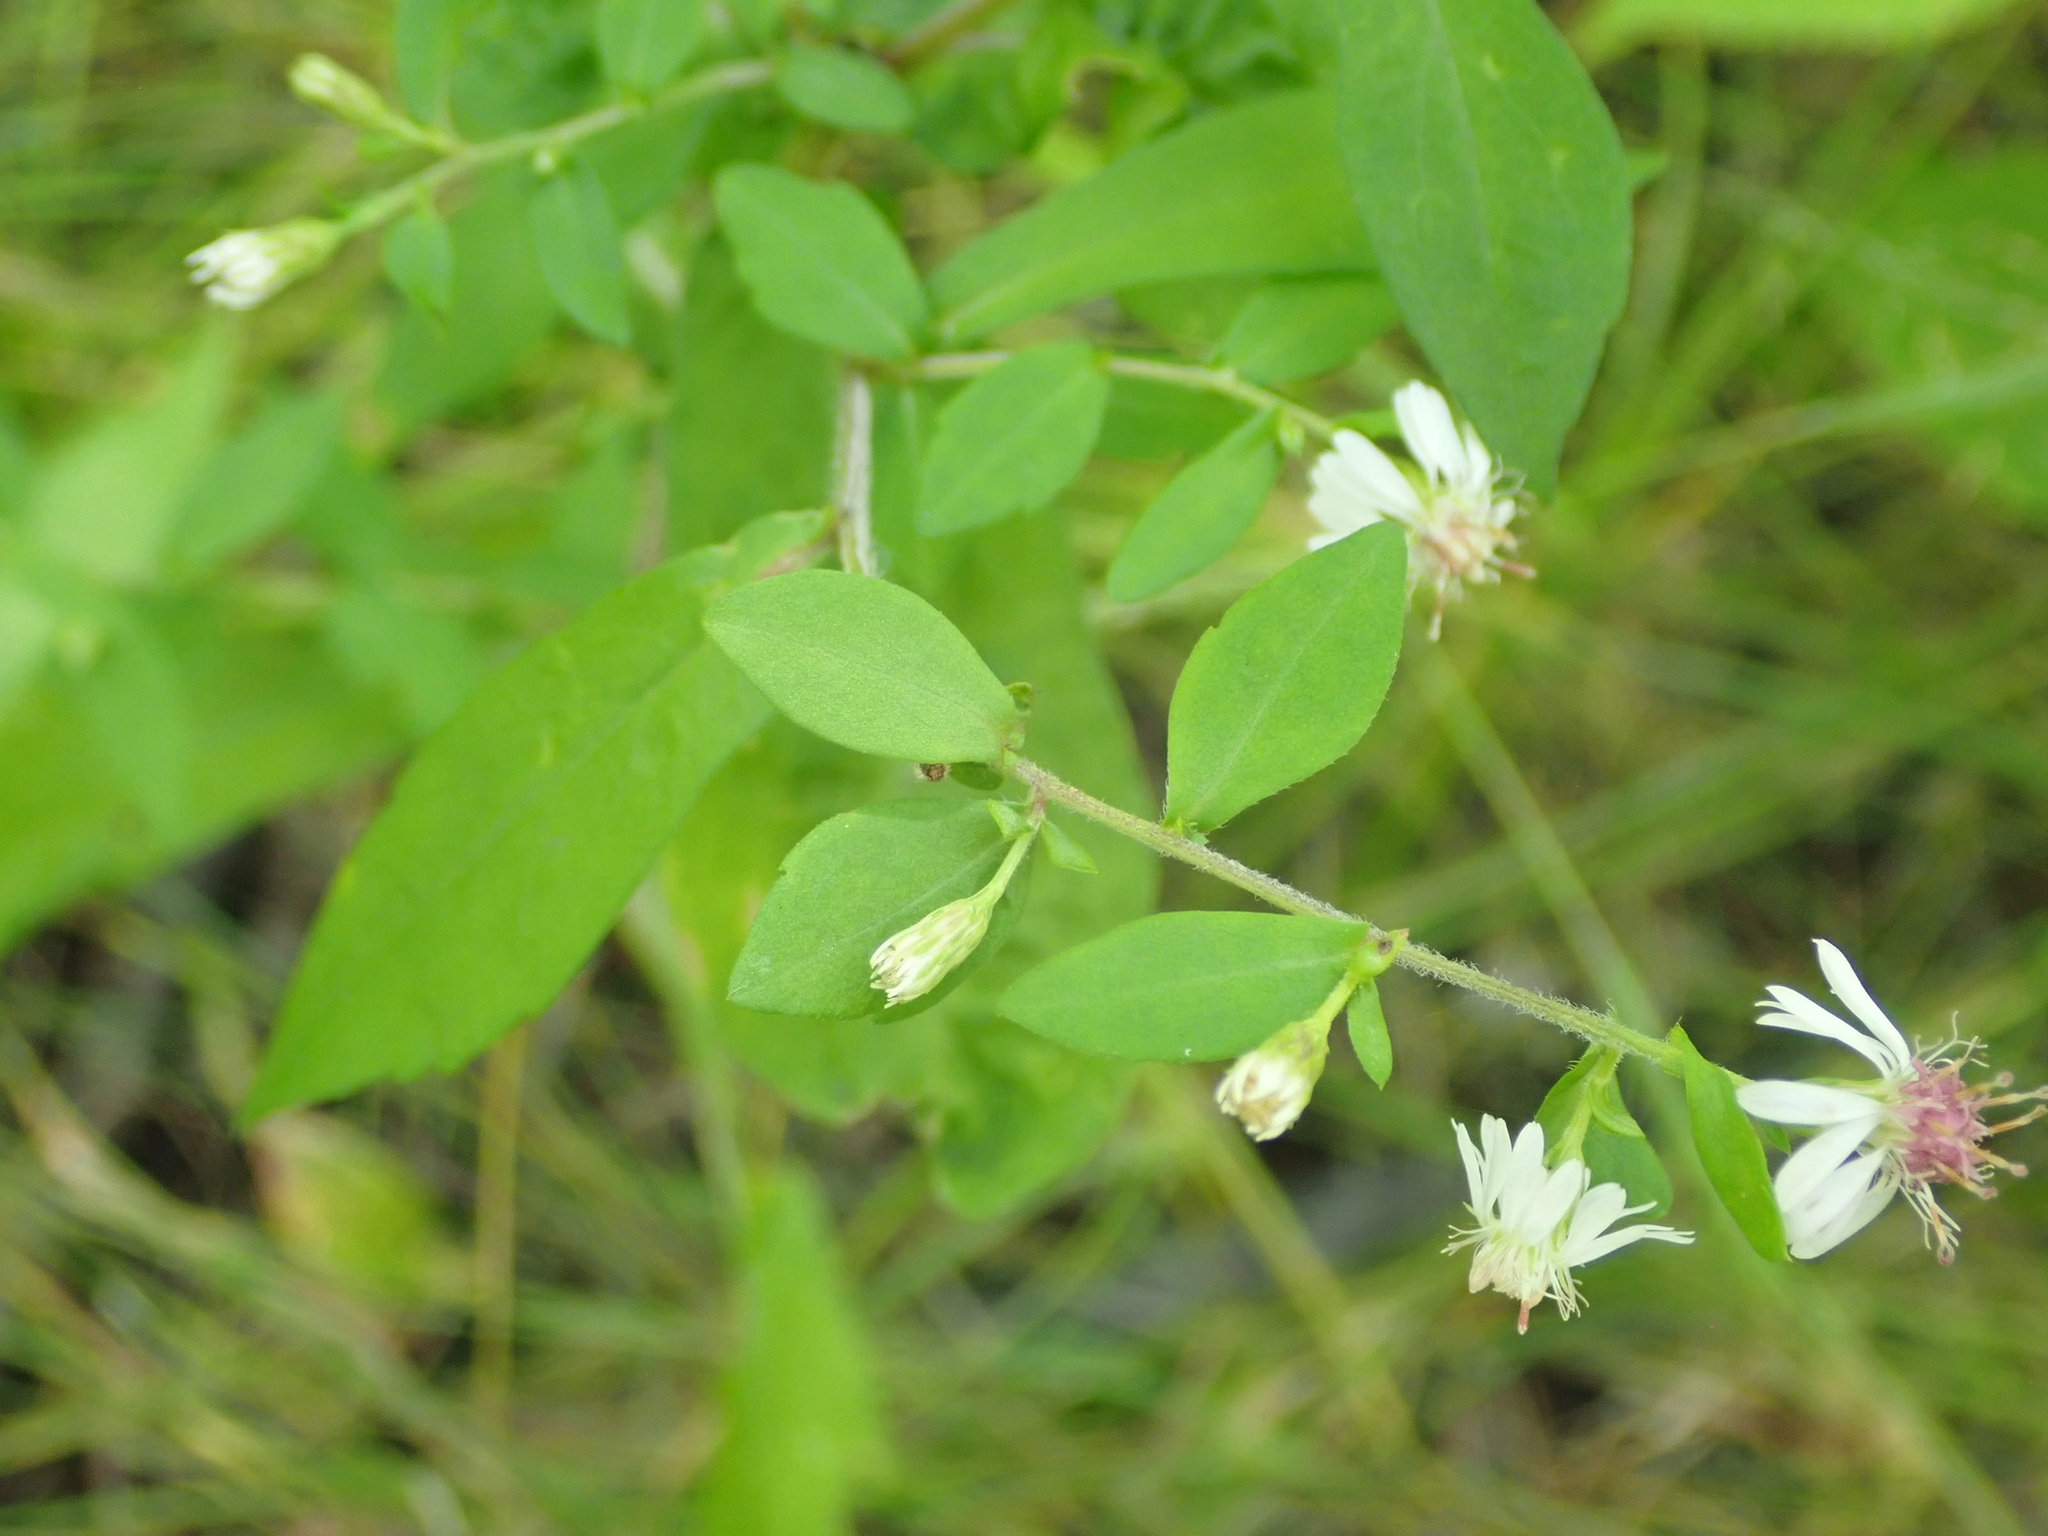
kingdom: Plantae
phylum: Tracheophyta
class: Magnoliopsida
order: Asterales
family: Asteraceae
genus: Symphyotrichum
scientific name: Symphyotrichum lateriflorum
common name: Calico aster
